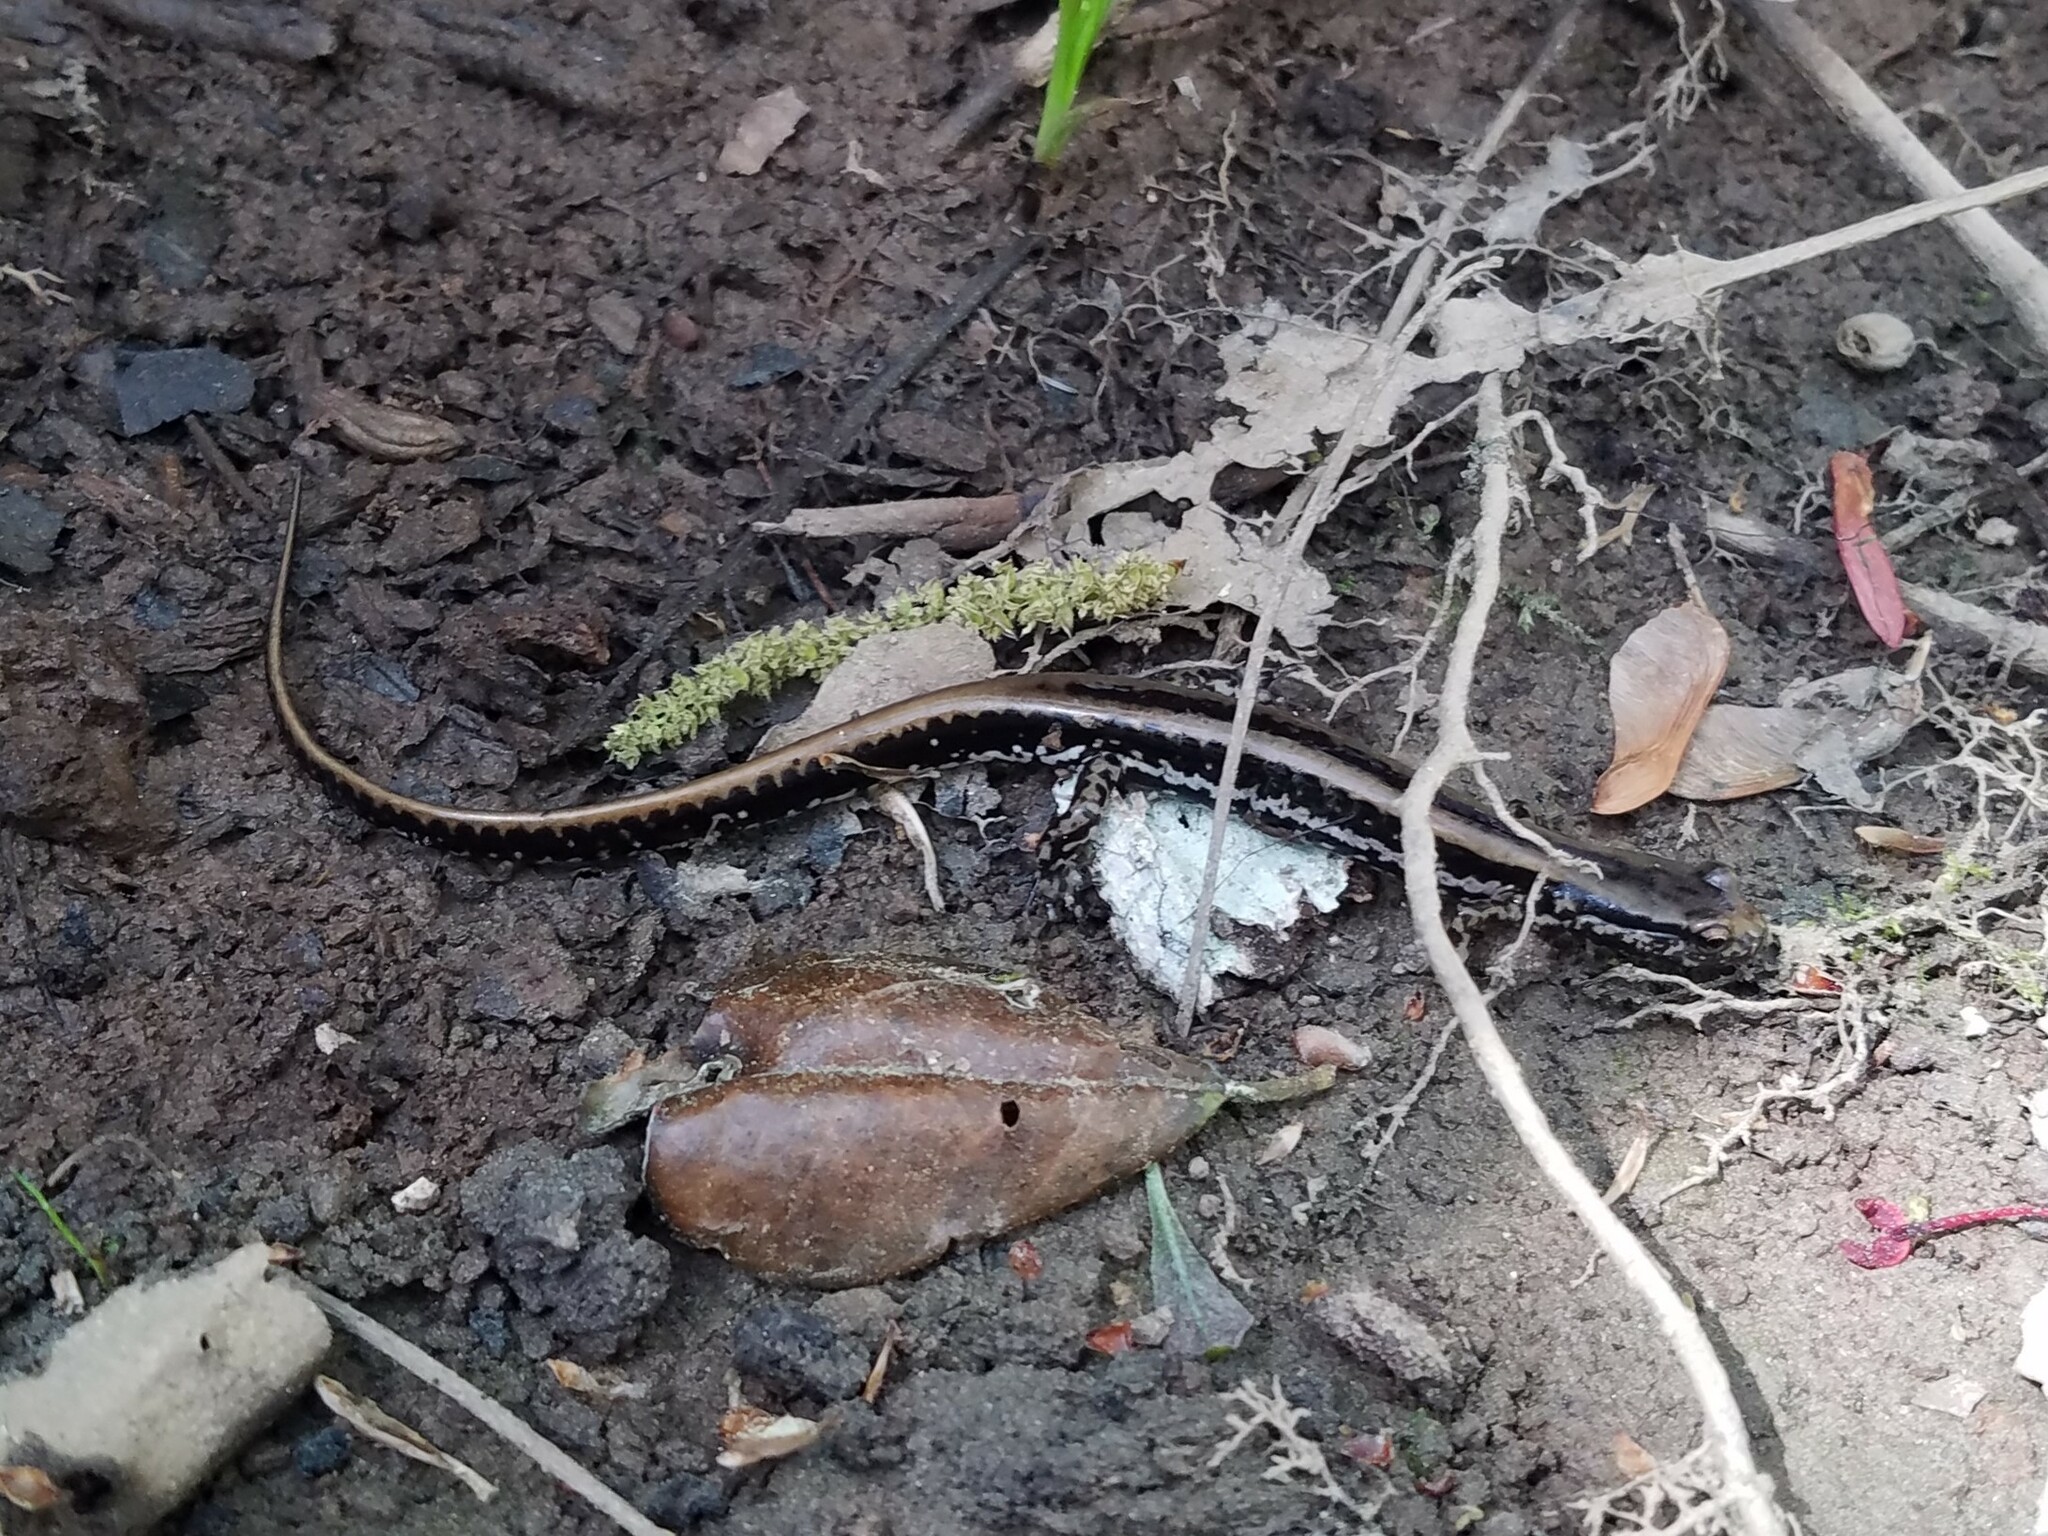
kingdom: Animalia
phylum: Chordata
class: Amphibia
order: Caudata
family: Plethodontidae
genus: Eurycea
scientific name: Eurycea guttolineata
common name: Three-lined salamander
